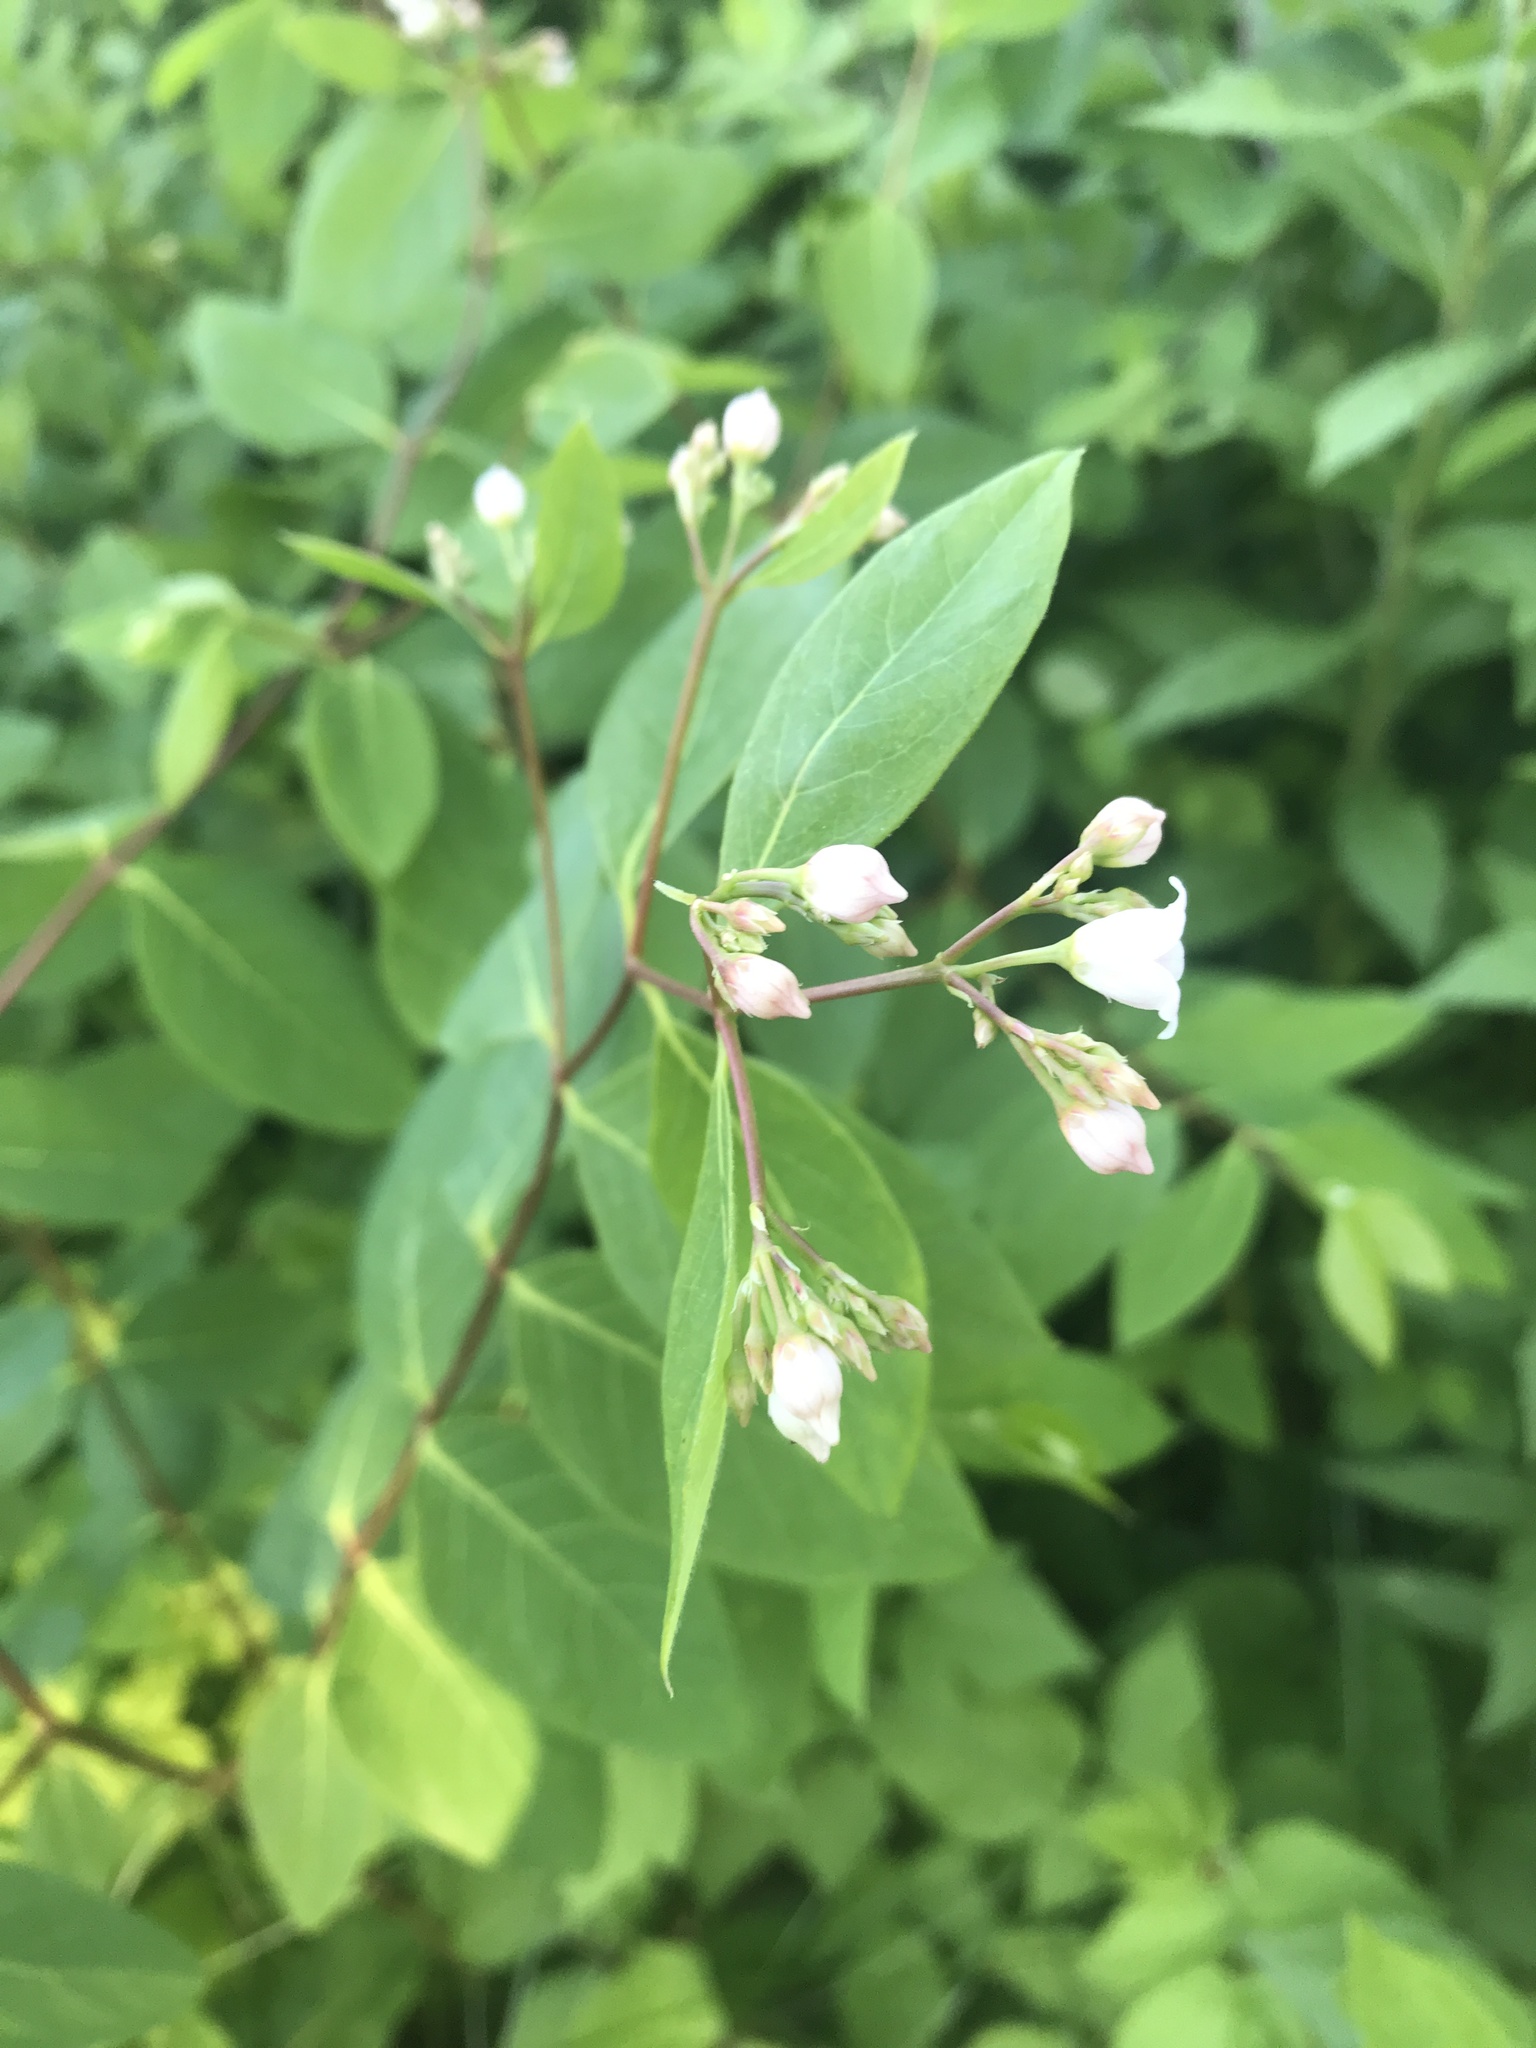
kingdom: Plantae
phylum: Tracheophyta
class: Magnoliopsida
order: Gentianales
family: Apocynaceae
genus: Apocynum
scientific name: Apocynum androsaemifolium
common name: Spreading dogbane
